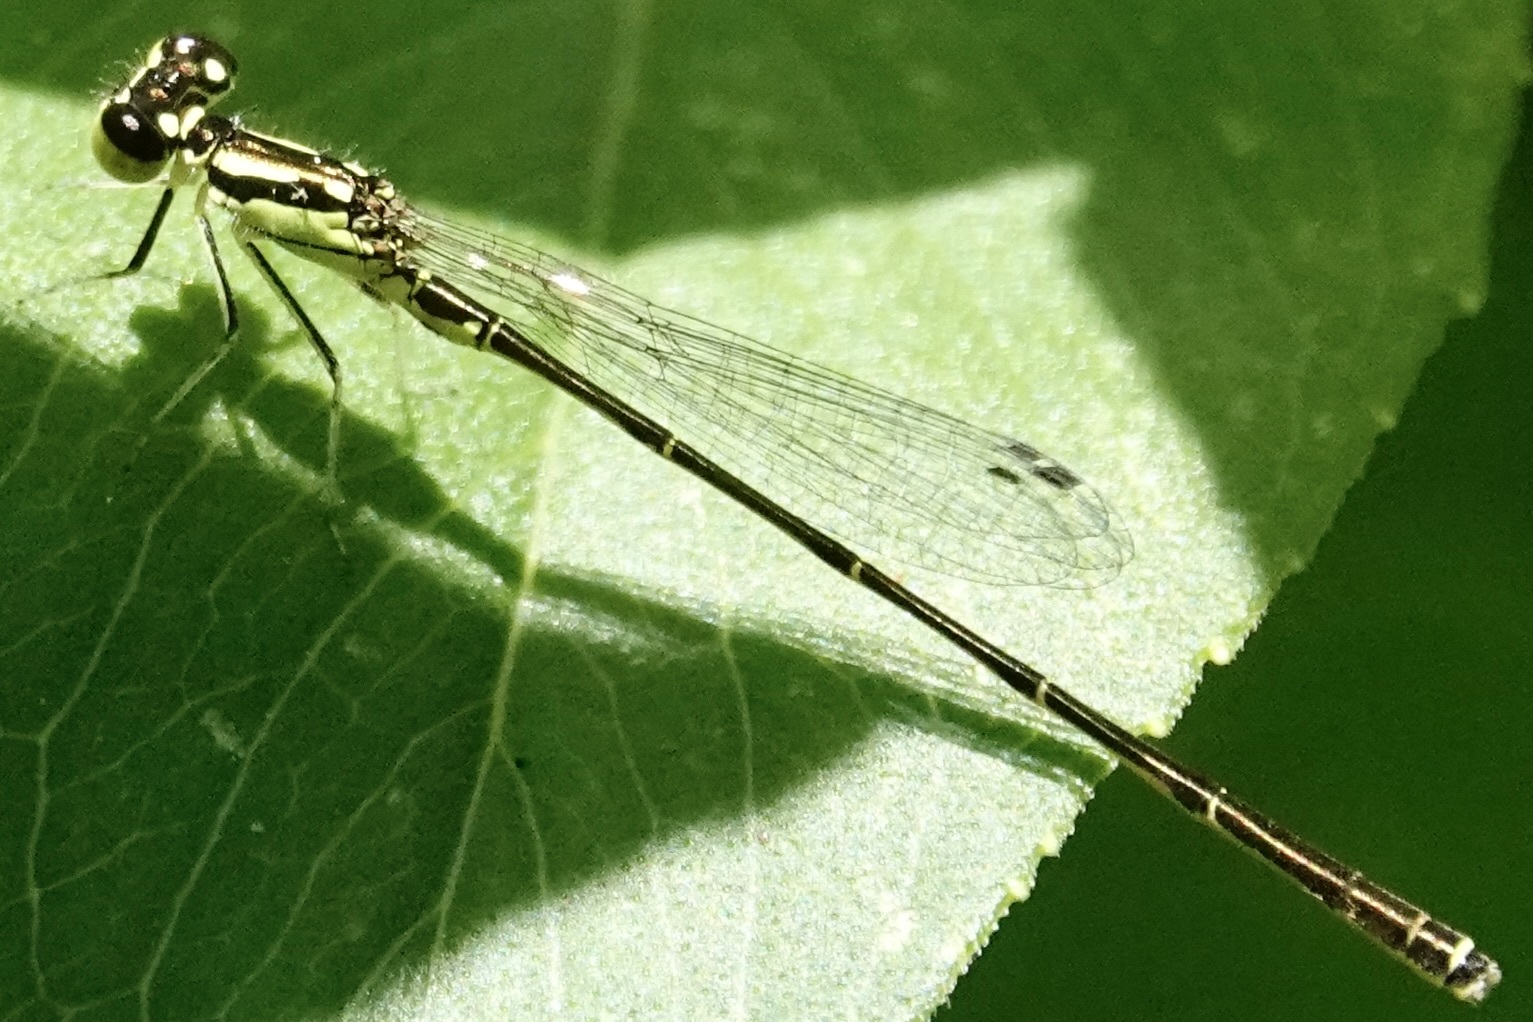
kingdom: Animalia
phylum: Arthropoda
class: Insecta
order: Odonata
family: Coenagrionidae
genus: Ischnura
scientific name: Ischnura posita
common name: Fragile forktail
